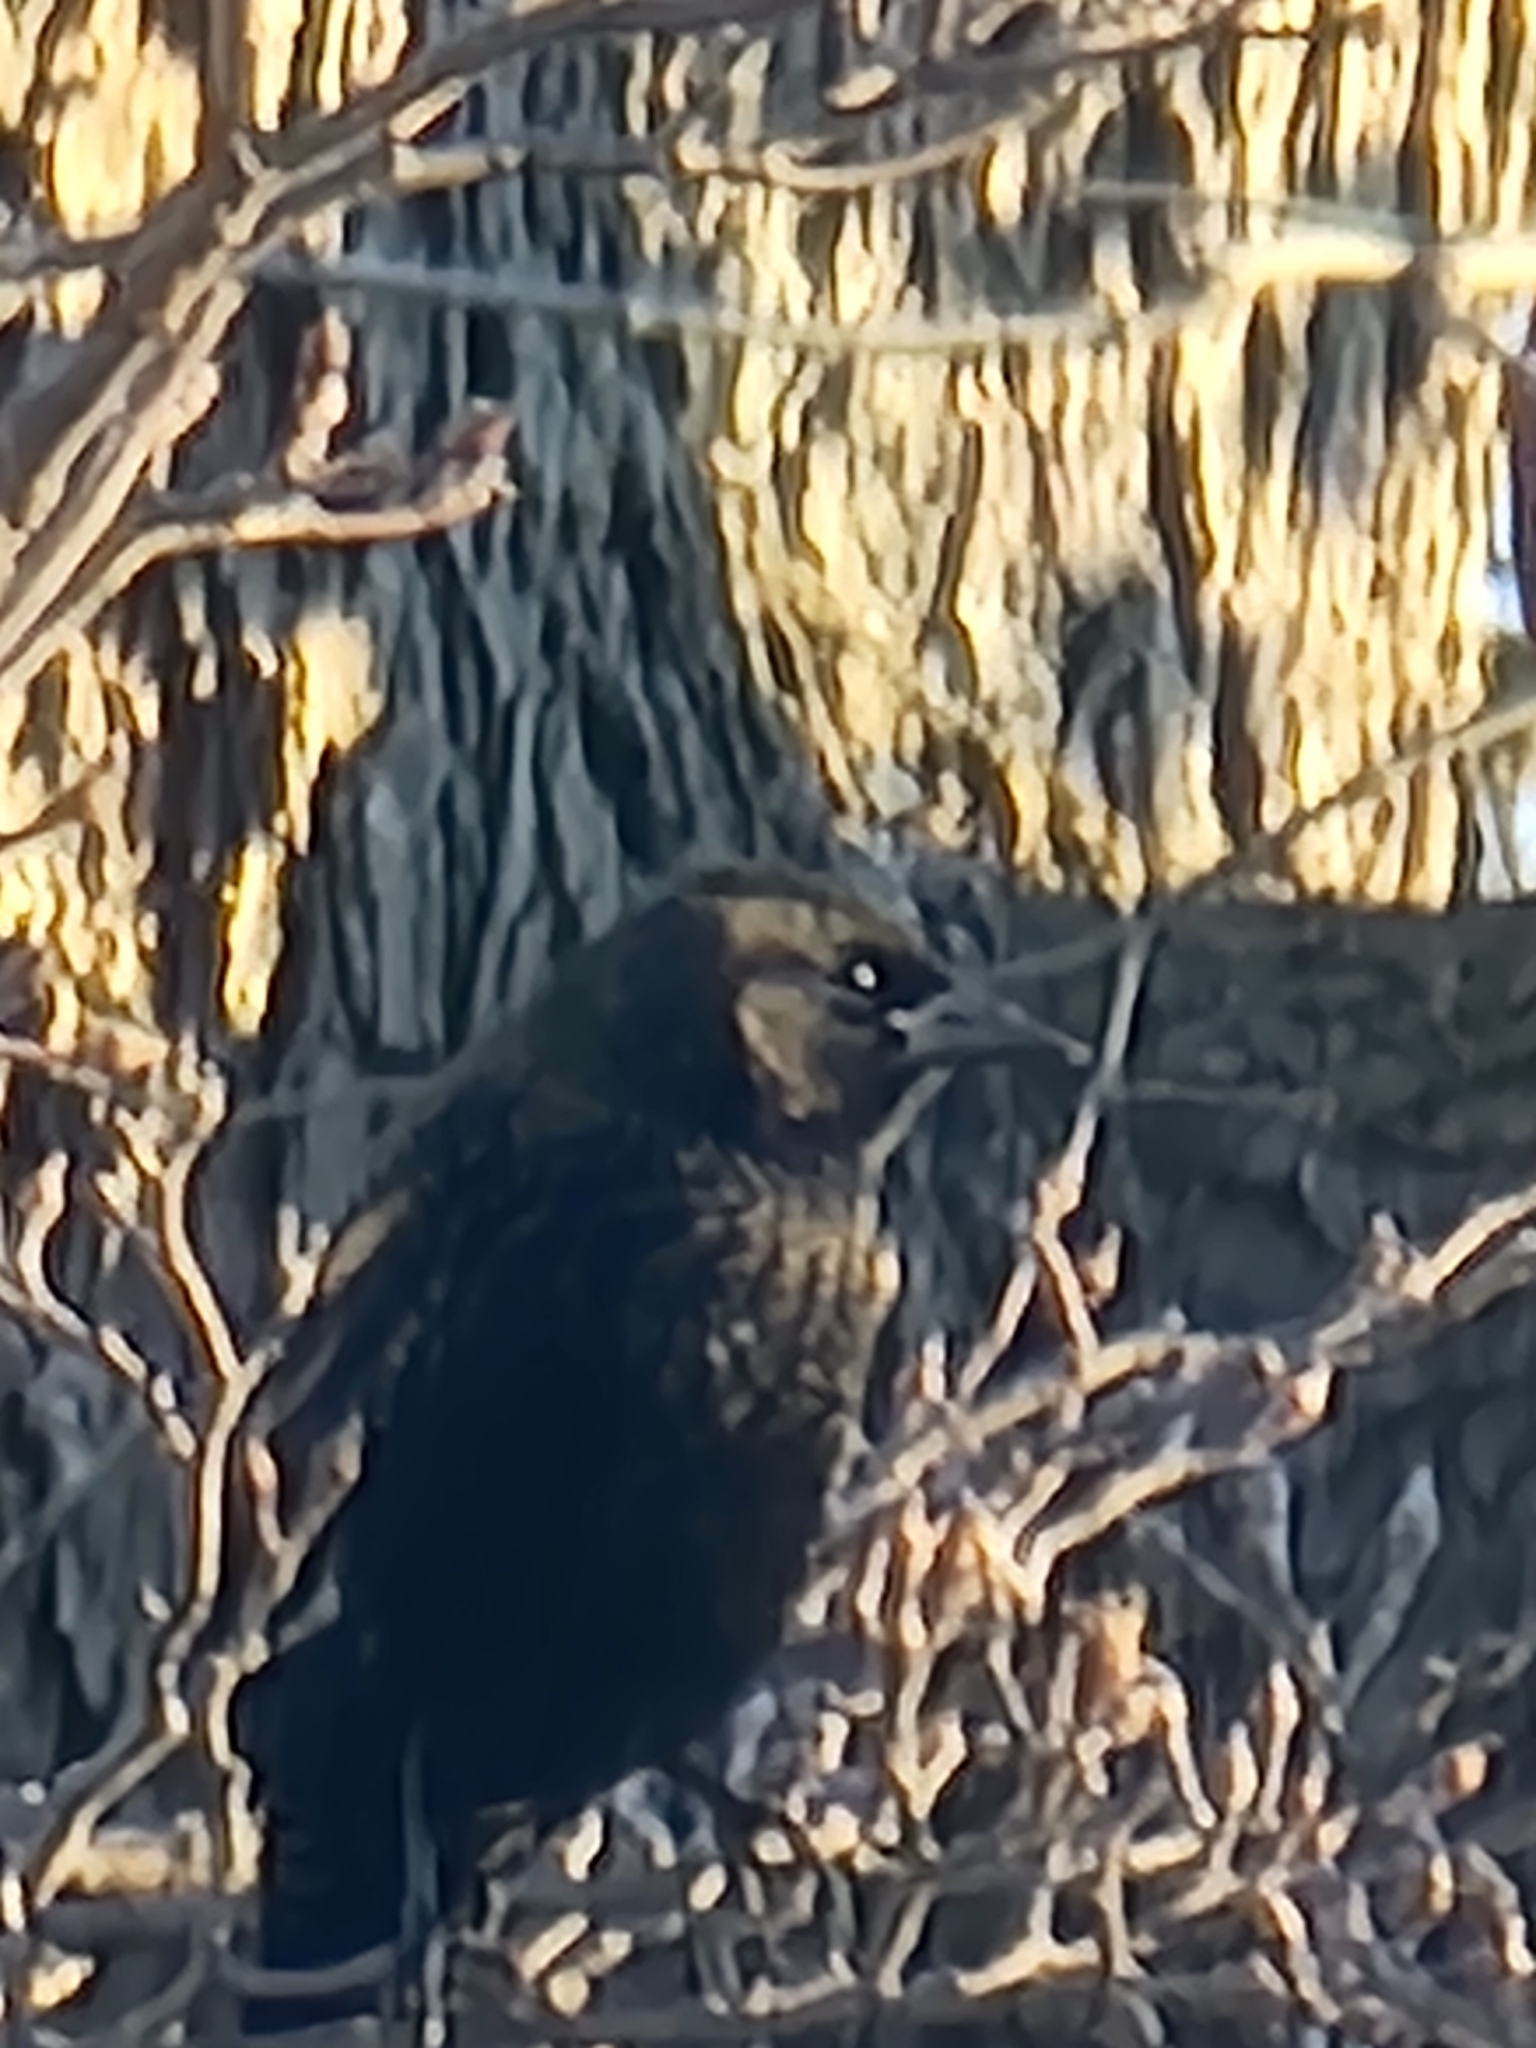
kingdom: Animalia
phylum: Chordata
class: Aves
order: Passeriformes
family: Icteridae
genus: Agelaius
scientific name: Agelaius phoeniceus
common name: Red-winged blackbird
